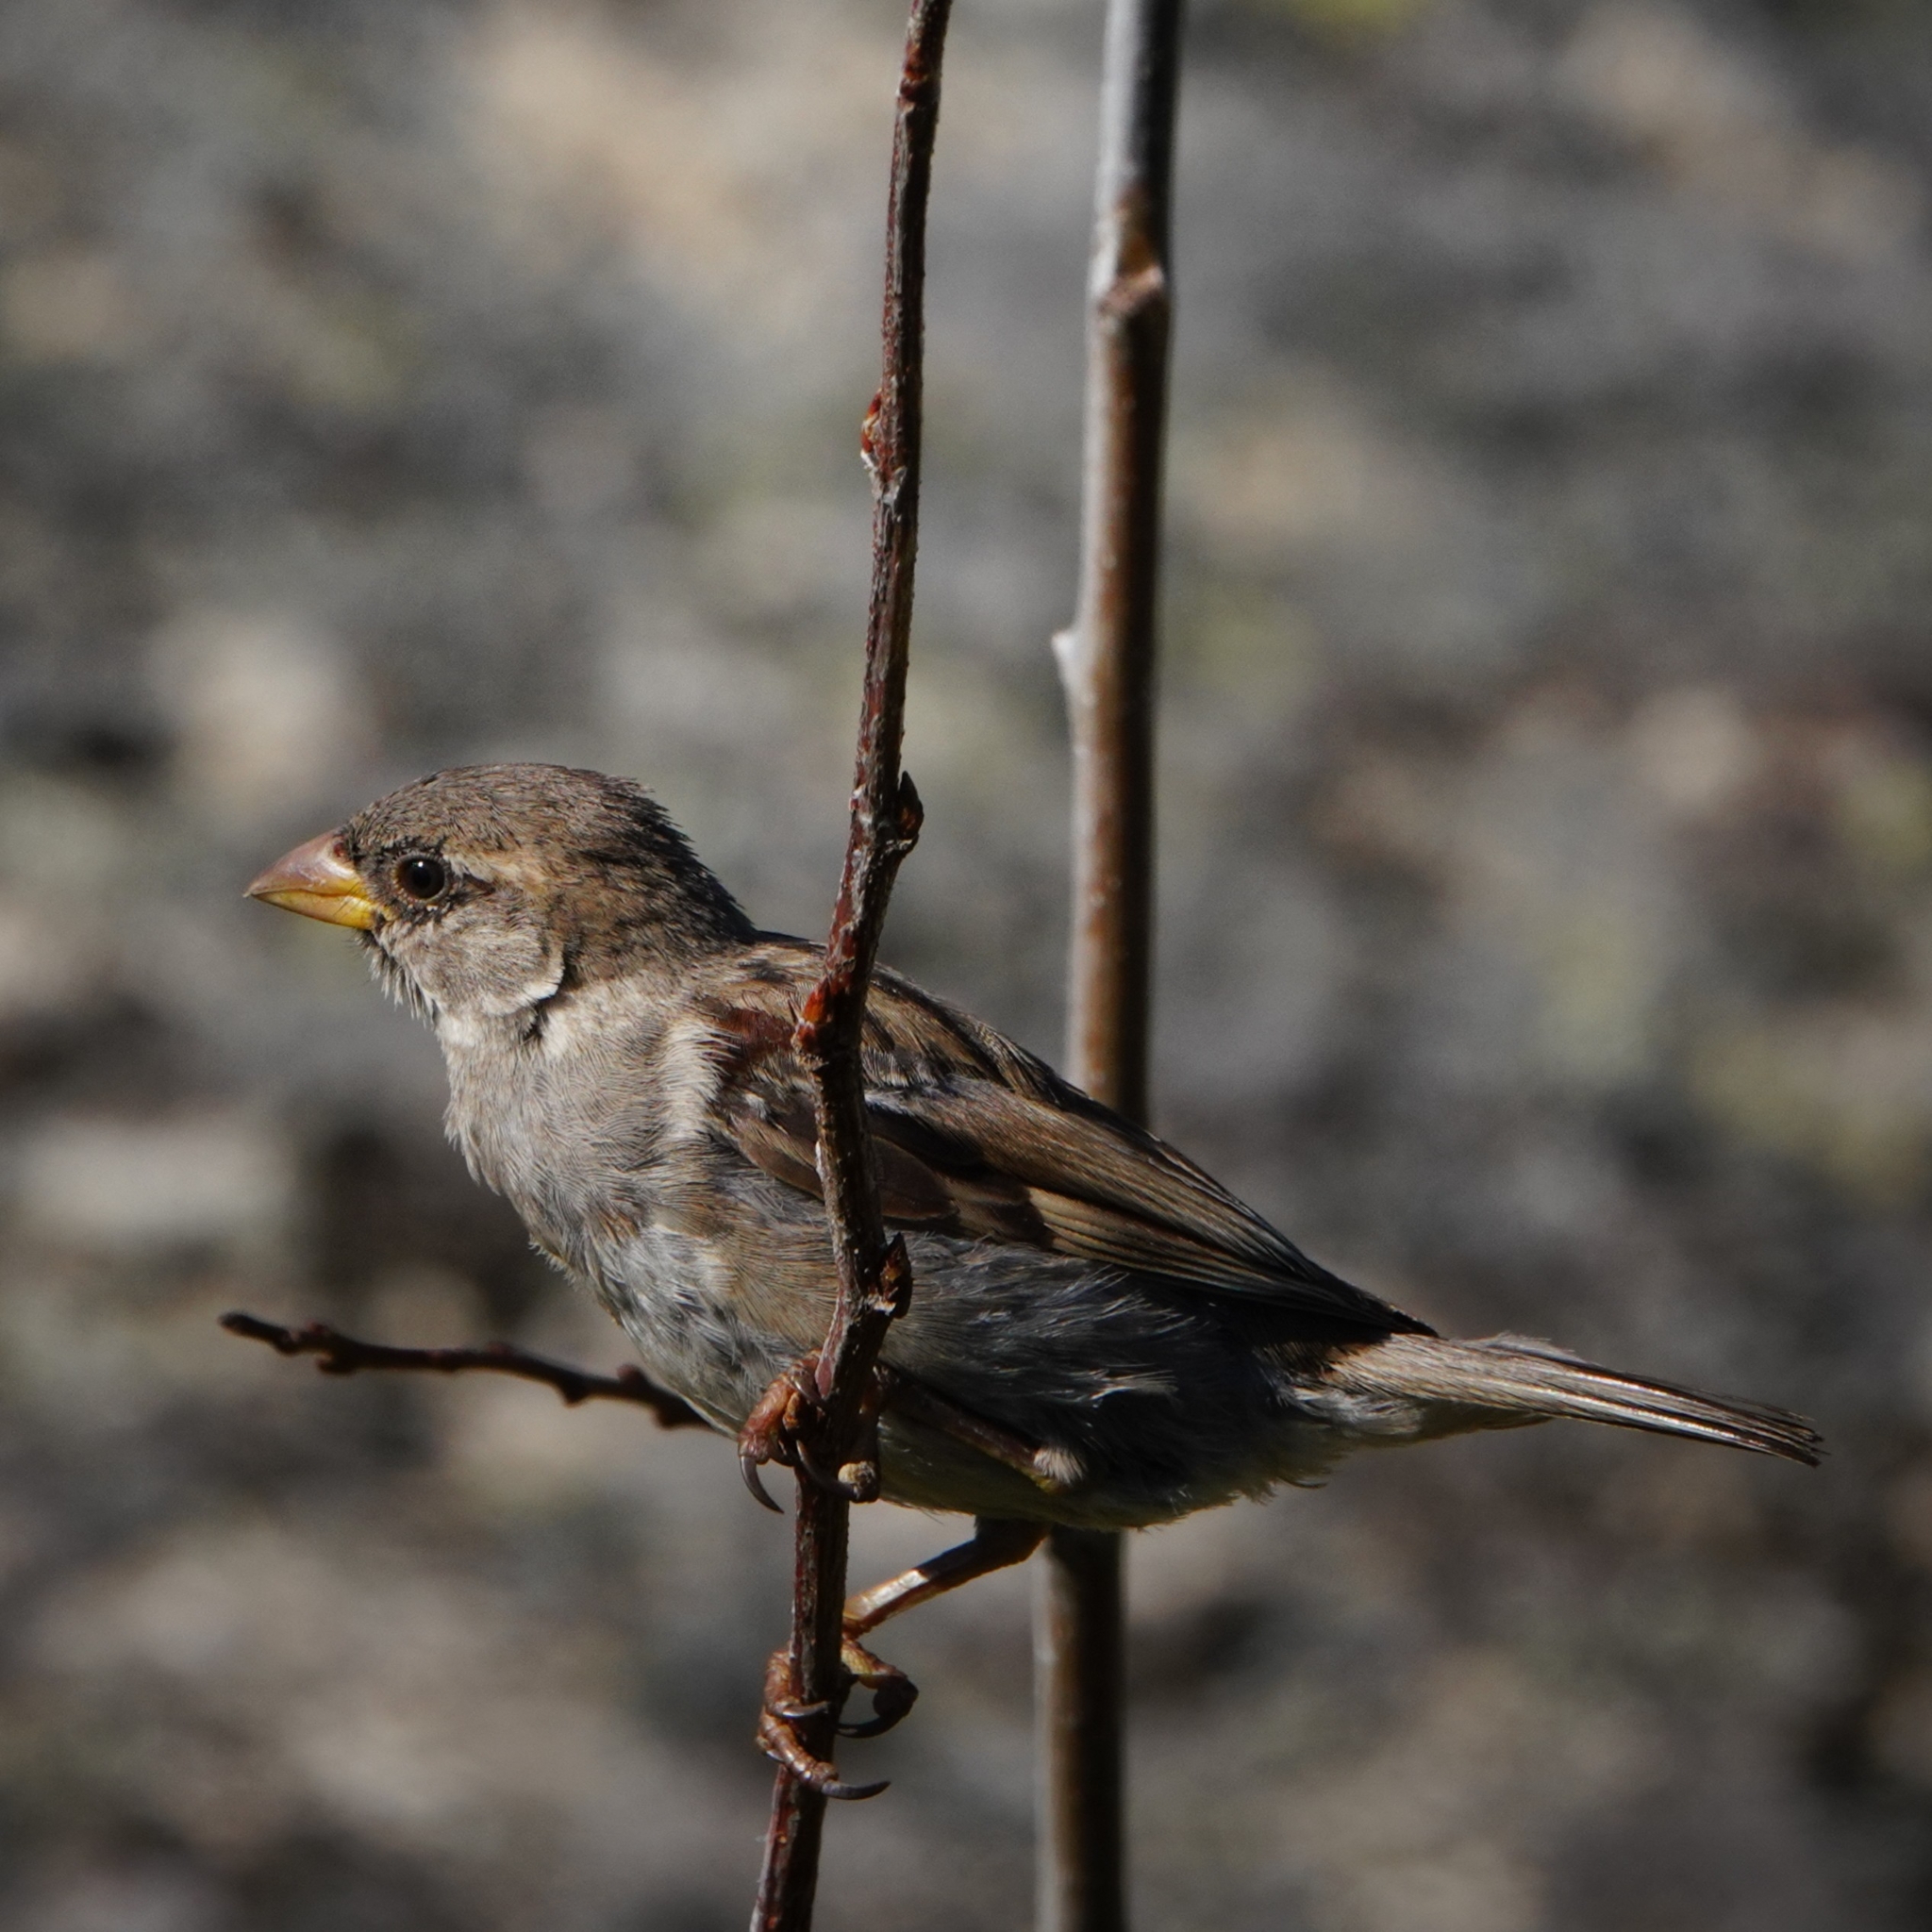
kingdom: Animalia
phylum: Chordata
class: Aves
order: Passeriformes
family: Passeridae
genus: Passer
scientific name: Passer domesticus
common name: House sparrow
